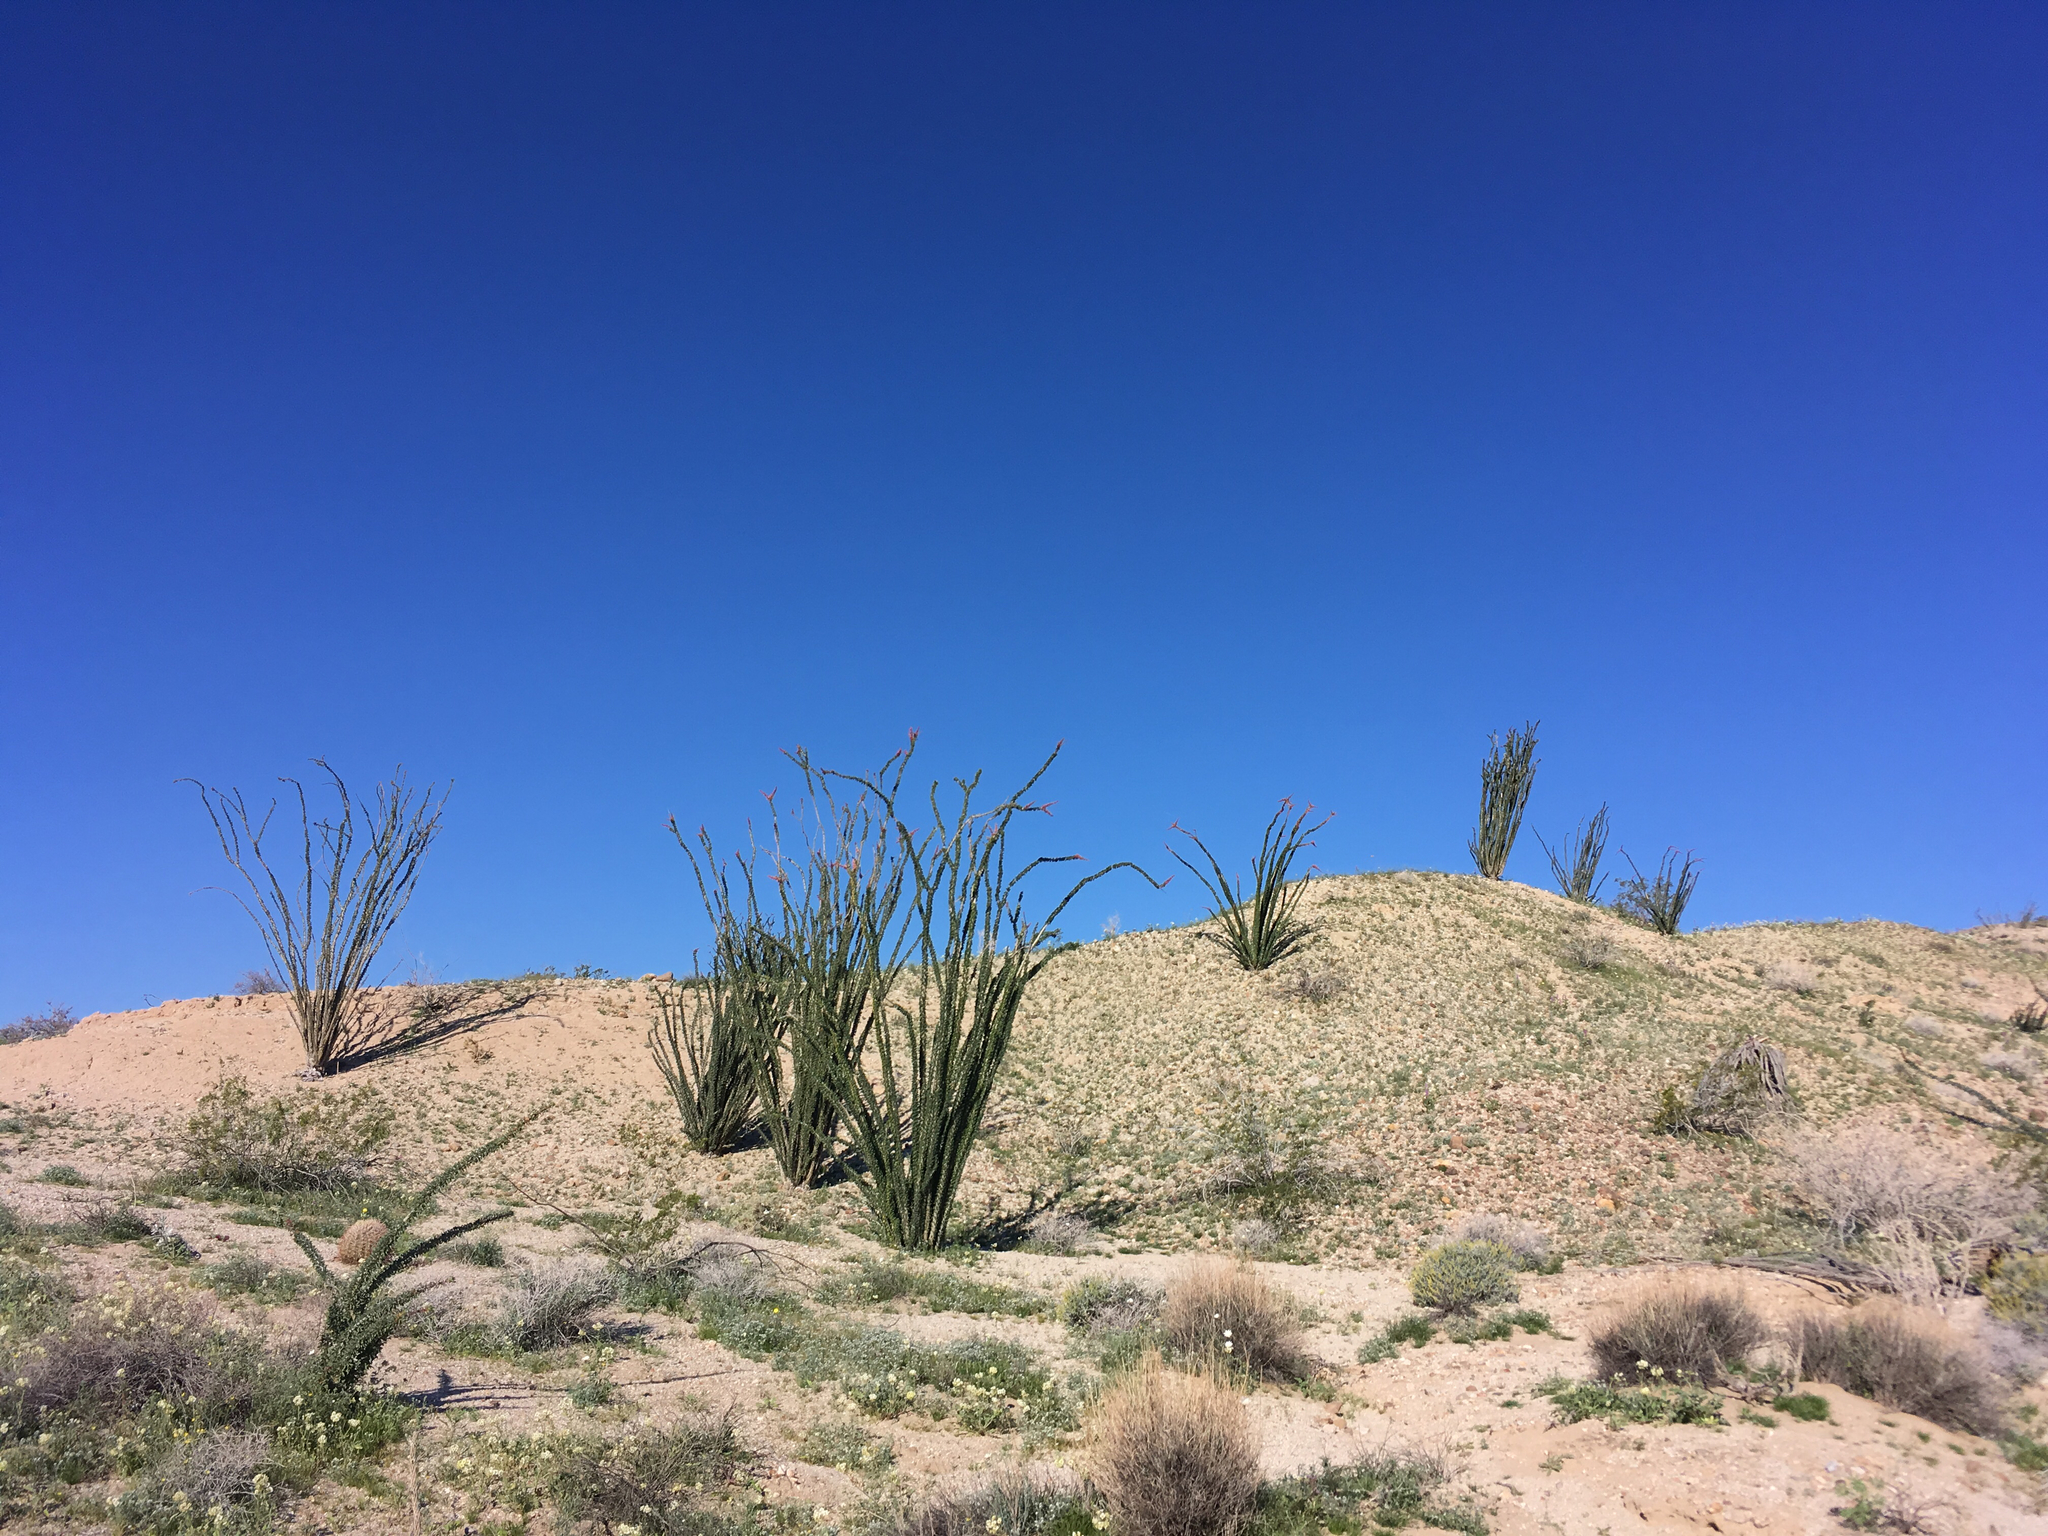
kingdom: Plantae
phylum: Tracheophyta
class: Magnoliopsida
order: Ericales
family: Fouquieriaceae
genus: Fouquieria
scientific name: Fouquieria splendens
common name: Vine-cactus
